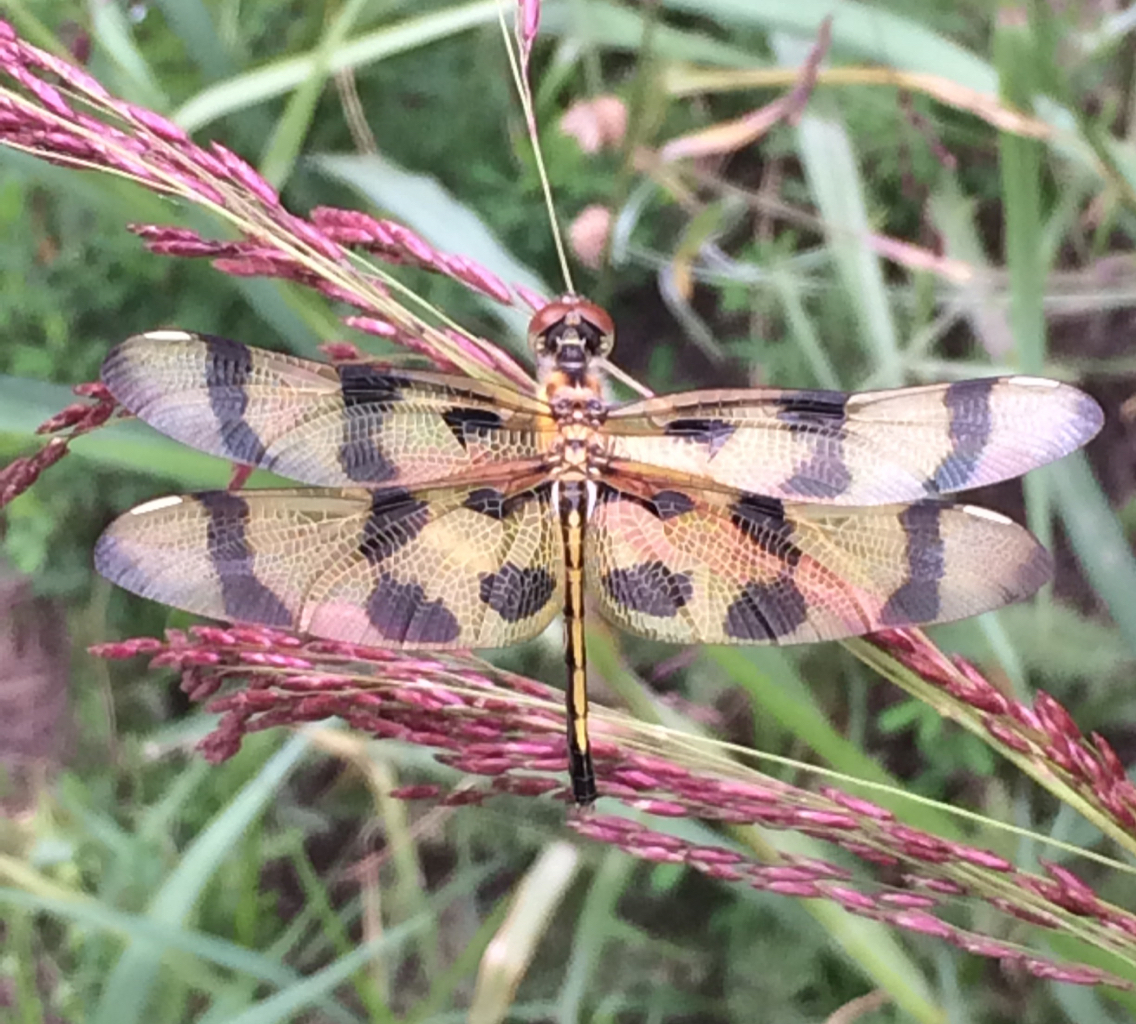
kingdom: Animalia
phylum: Arthropoda
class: Insecta
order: Odonata
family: Libellulidae
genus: Celithemis
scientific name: Celithemis eponina
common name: Halloween pennant
